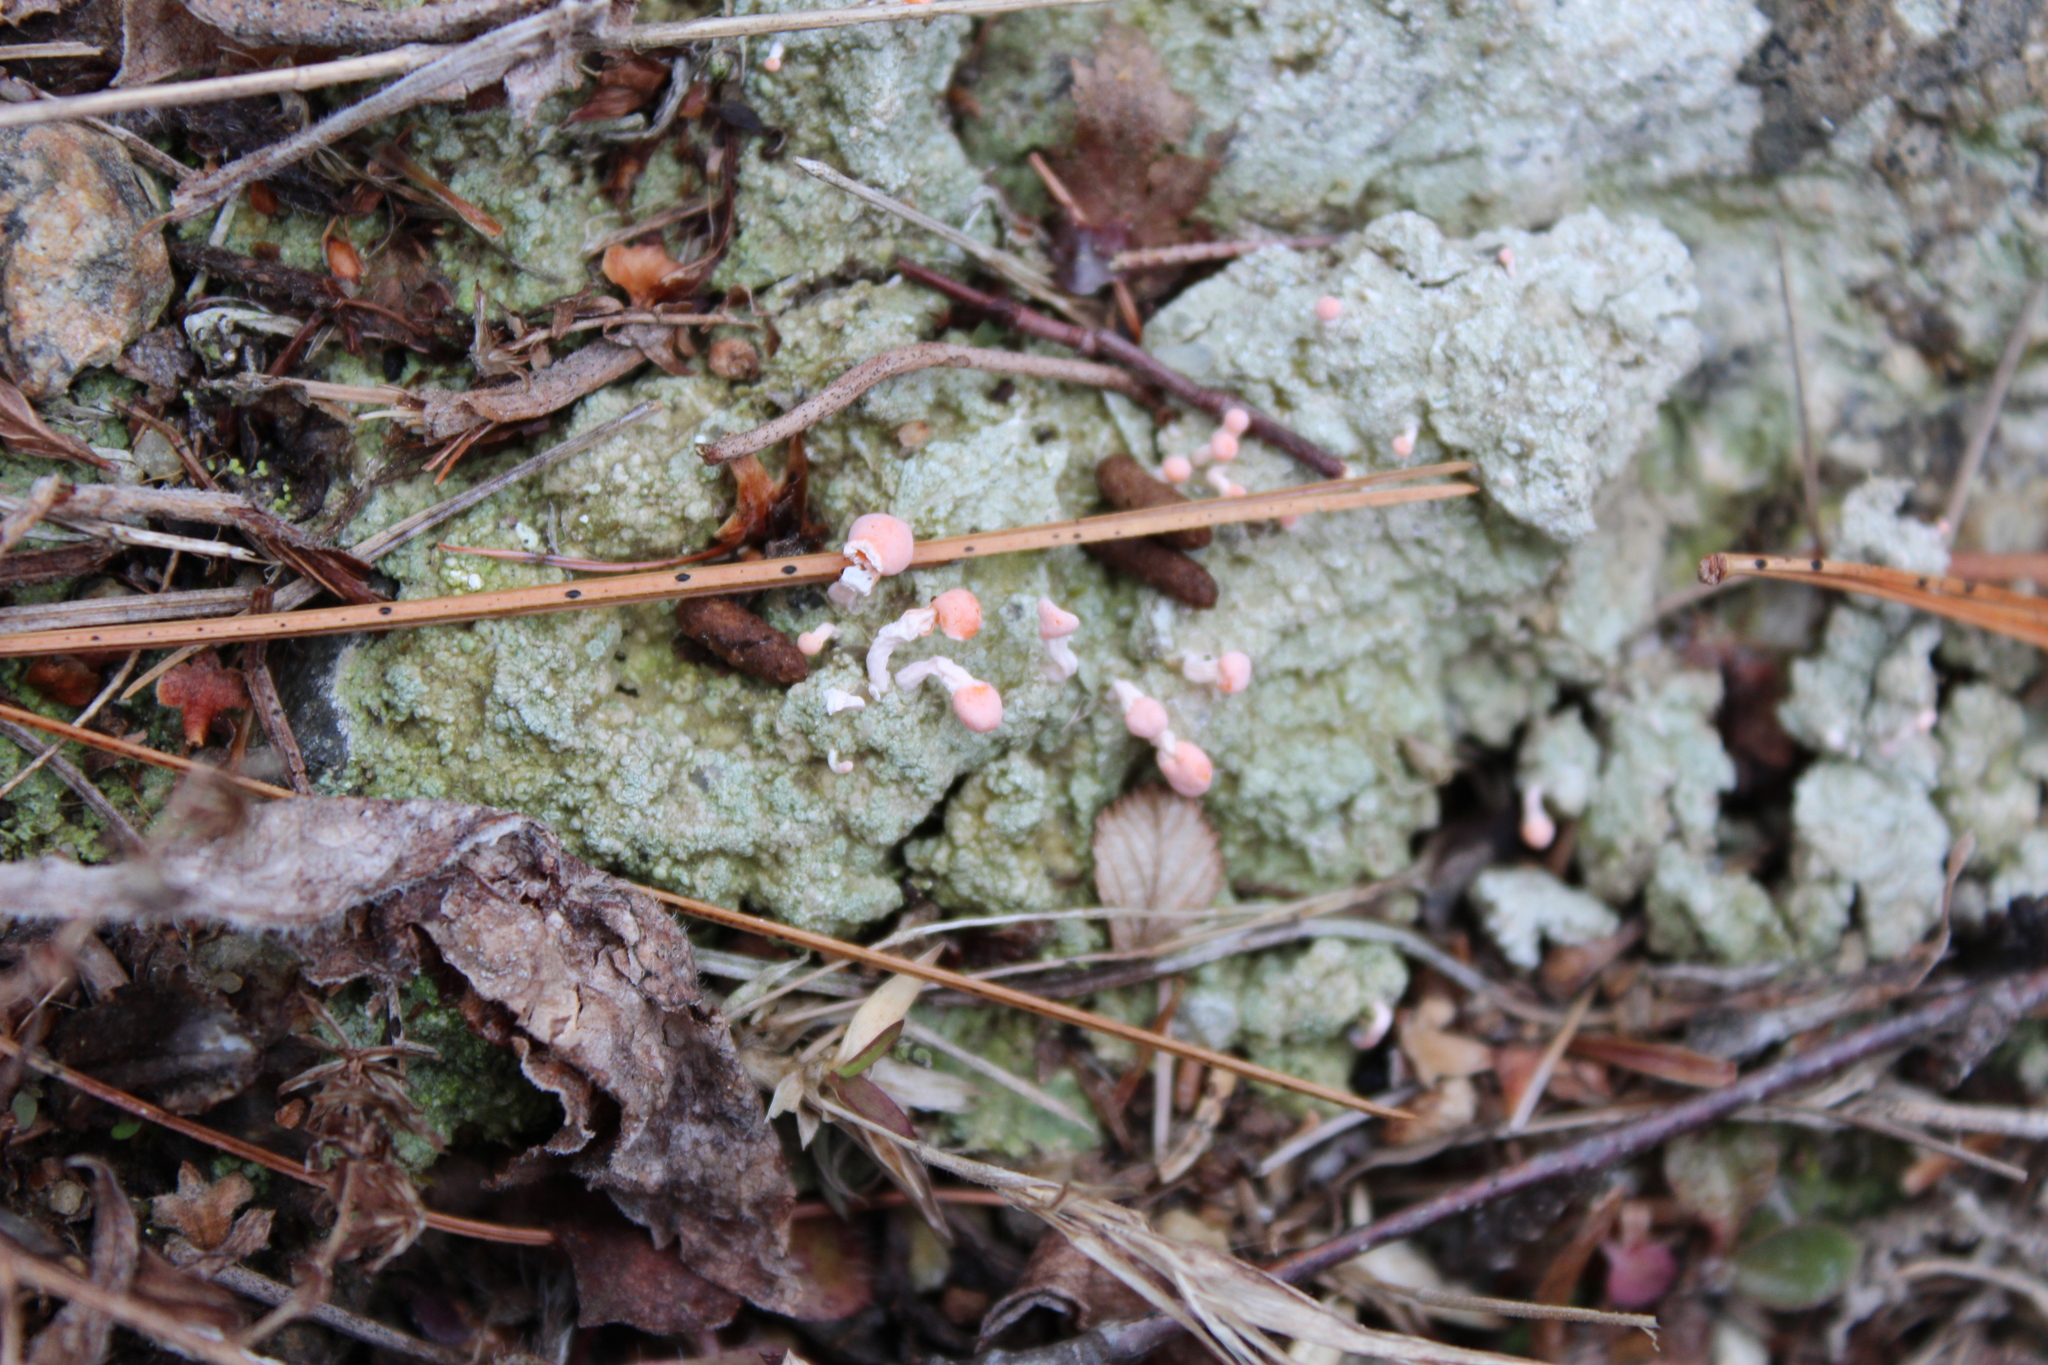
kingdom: Fungi
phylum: Ascomycota
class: Lecanoromycetes
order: Pertusariales
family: Icmadophilaceae
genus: Dibaeis
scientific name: Dibaeis baeomyces
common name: Pink earth lichen
